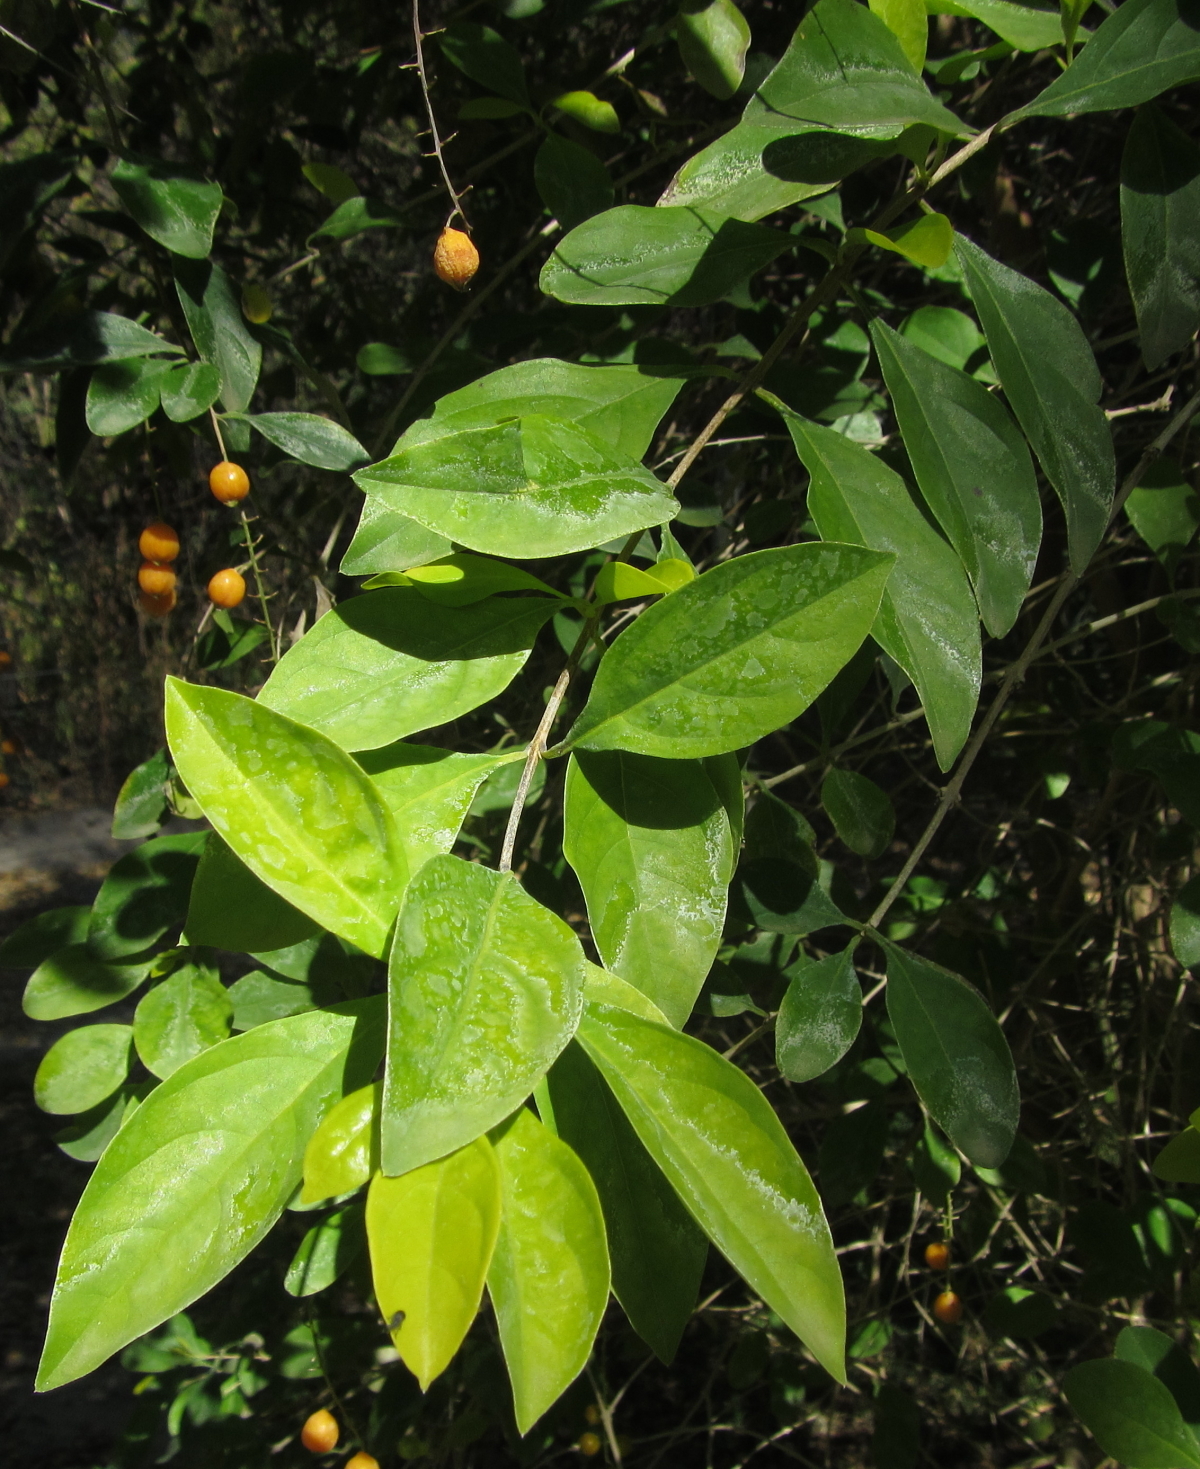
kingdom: Plantae
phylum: Tracheophyta
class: Magnoliopsida
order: Lamiales
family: Verbenaceae
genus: Duranta
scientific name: Duranta erecta
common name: Golden dewdrops
